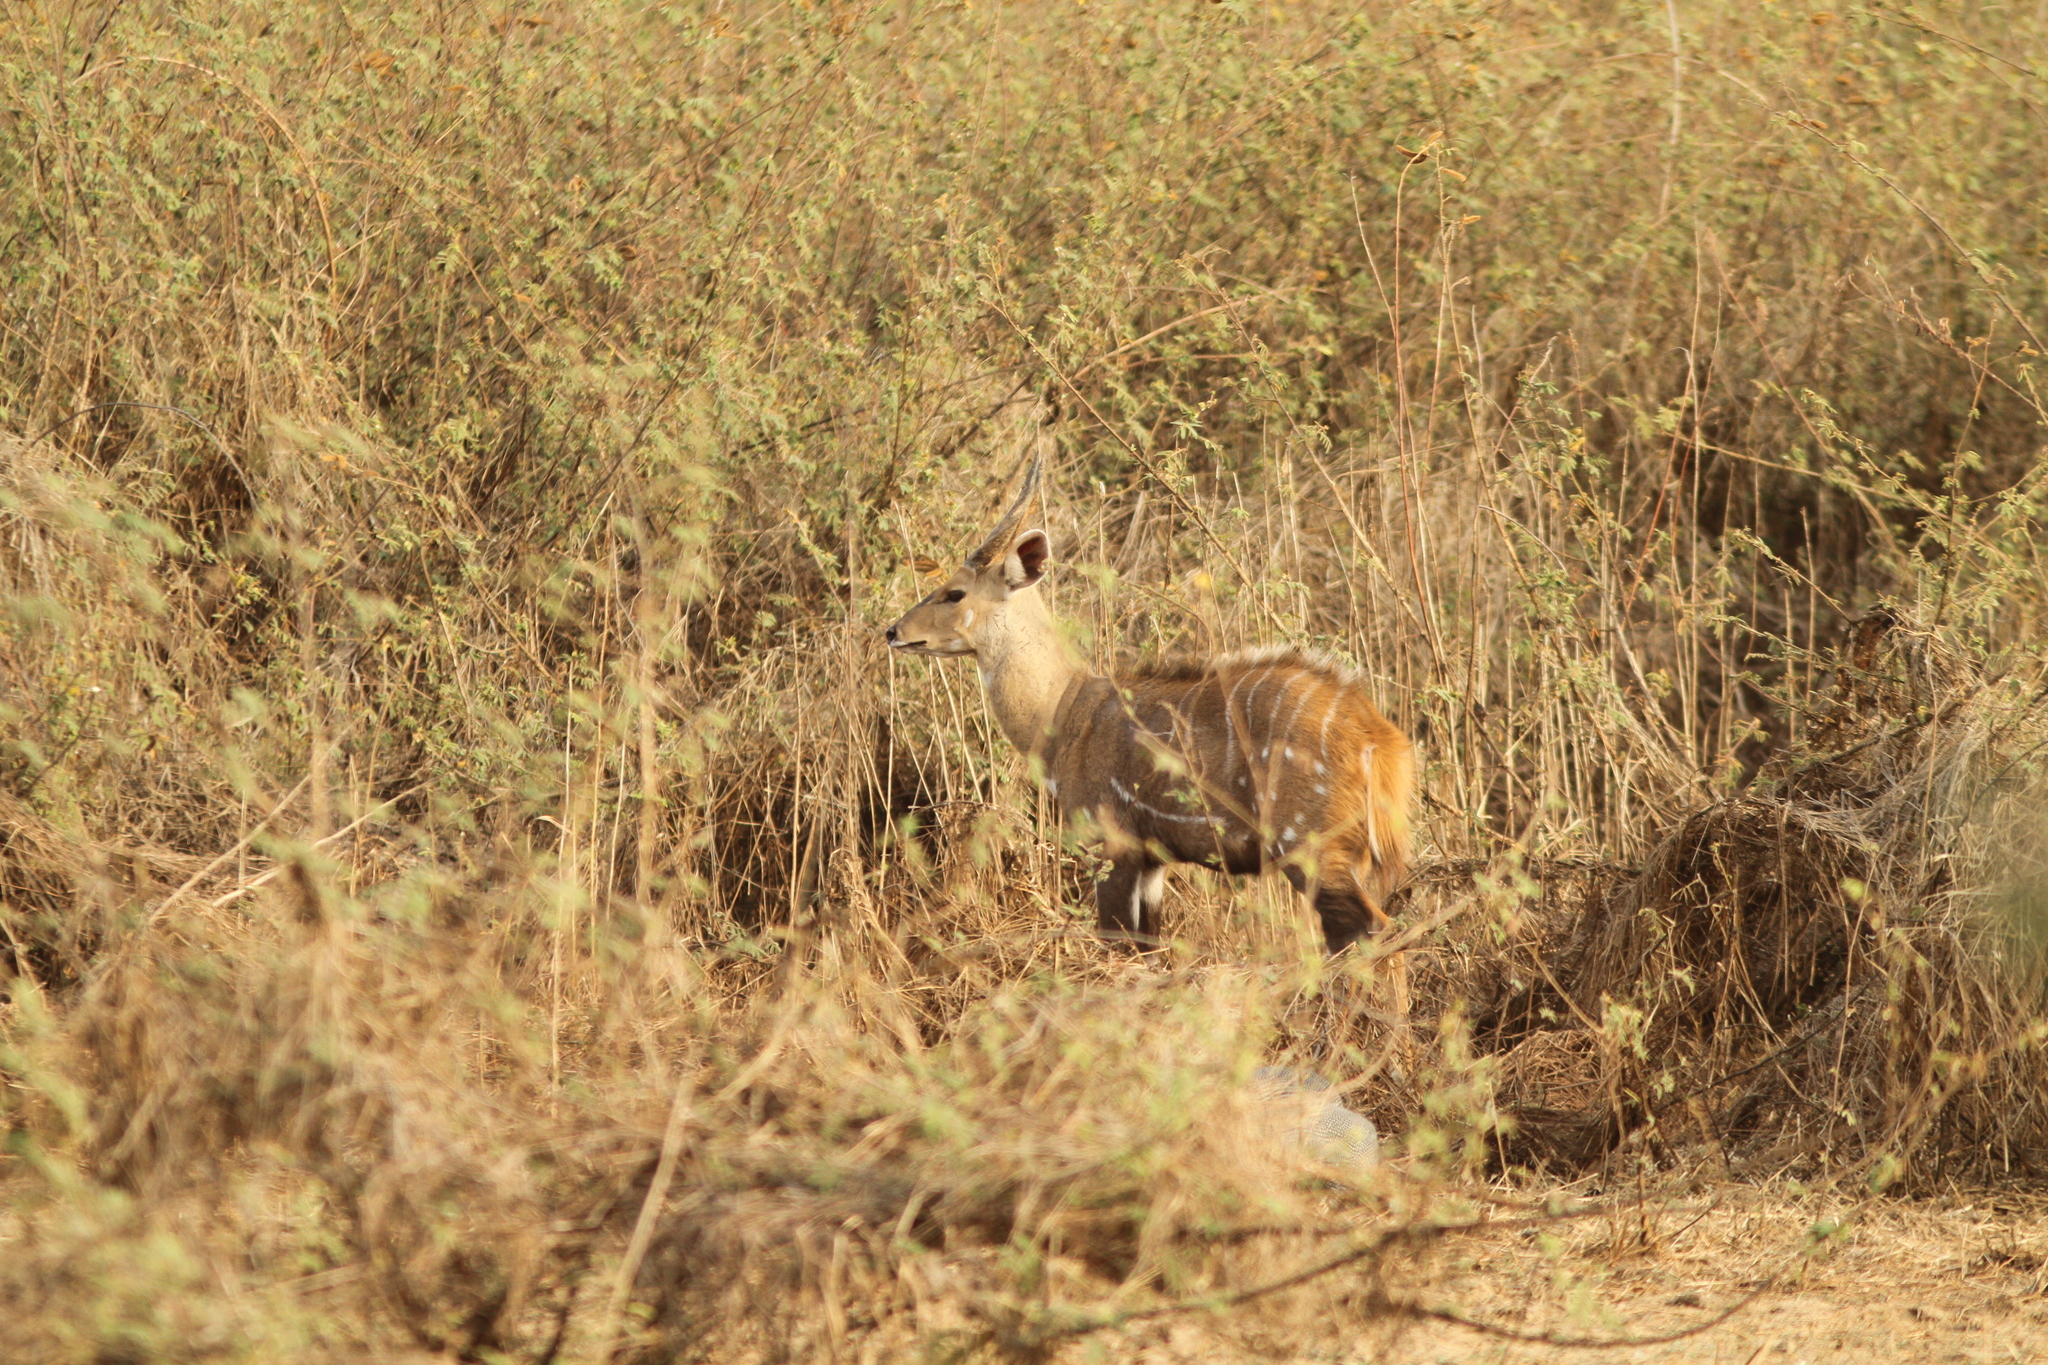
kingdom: Animalia
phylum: Chordata
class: Mammalia
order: Artiodactyla
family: Bovidae
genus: Tragelaphus
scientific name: Tragelaphus scriptus
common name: Bushbuck
